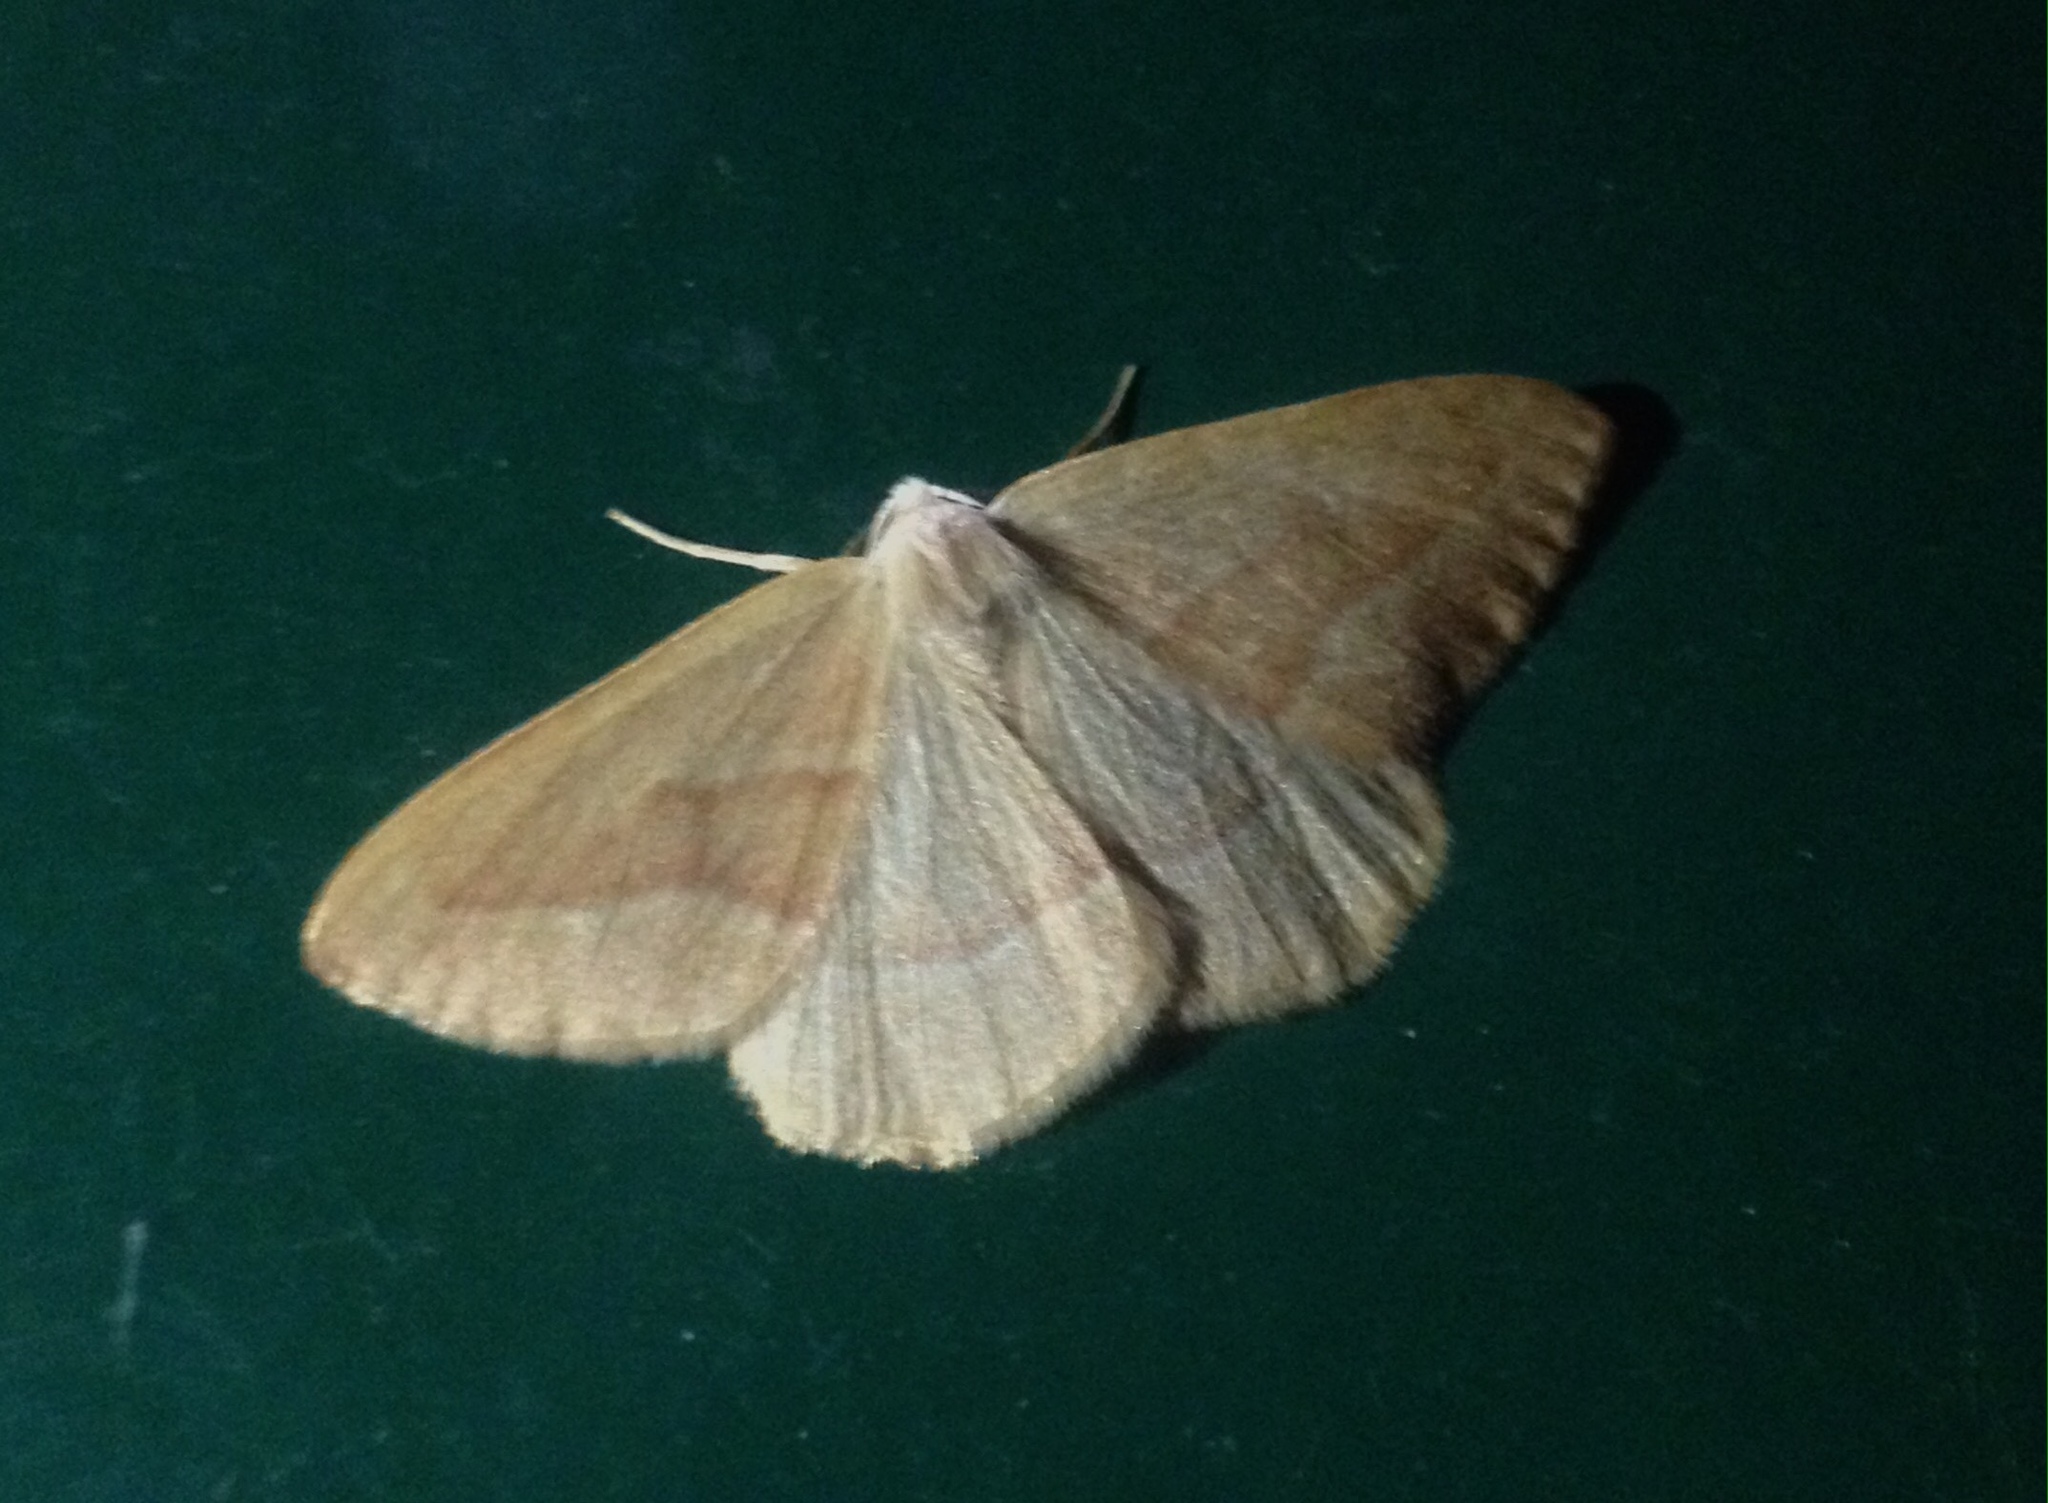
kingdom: Animalia
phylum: Arthropoda
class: Insecta
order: Lepidoptera
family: Geometridae
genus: Hylaea
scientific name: Hylaea fasciaria
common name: Barred red
